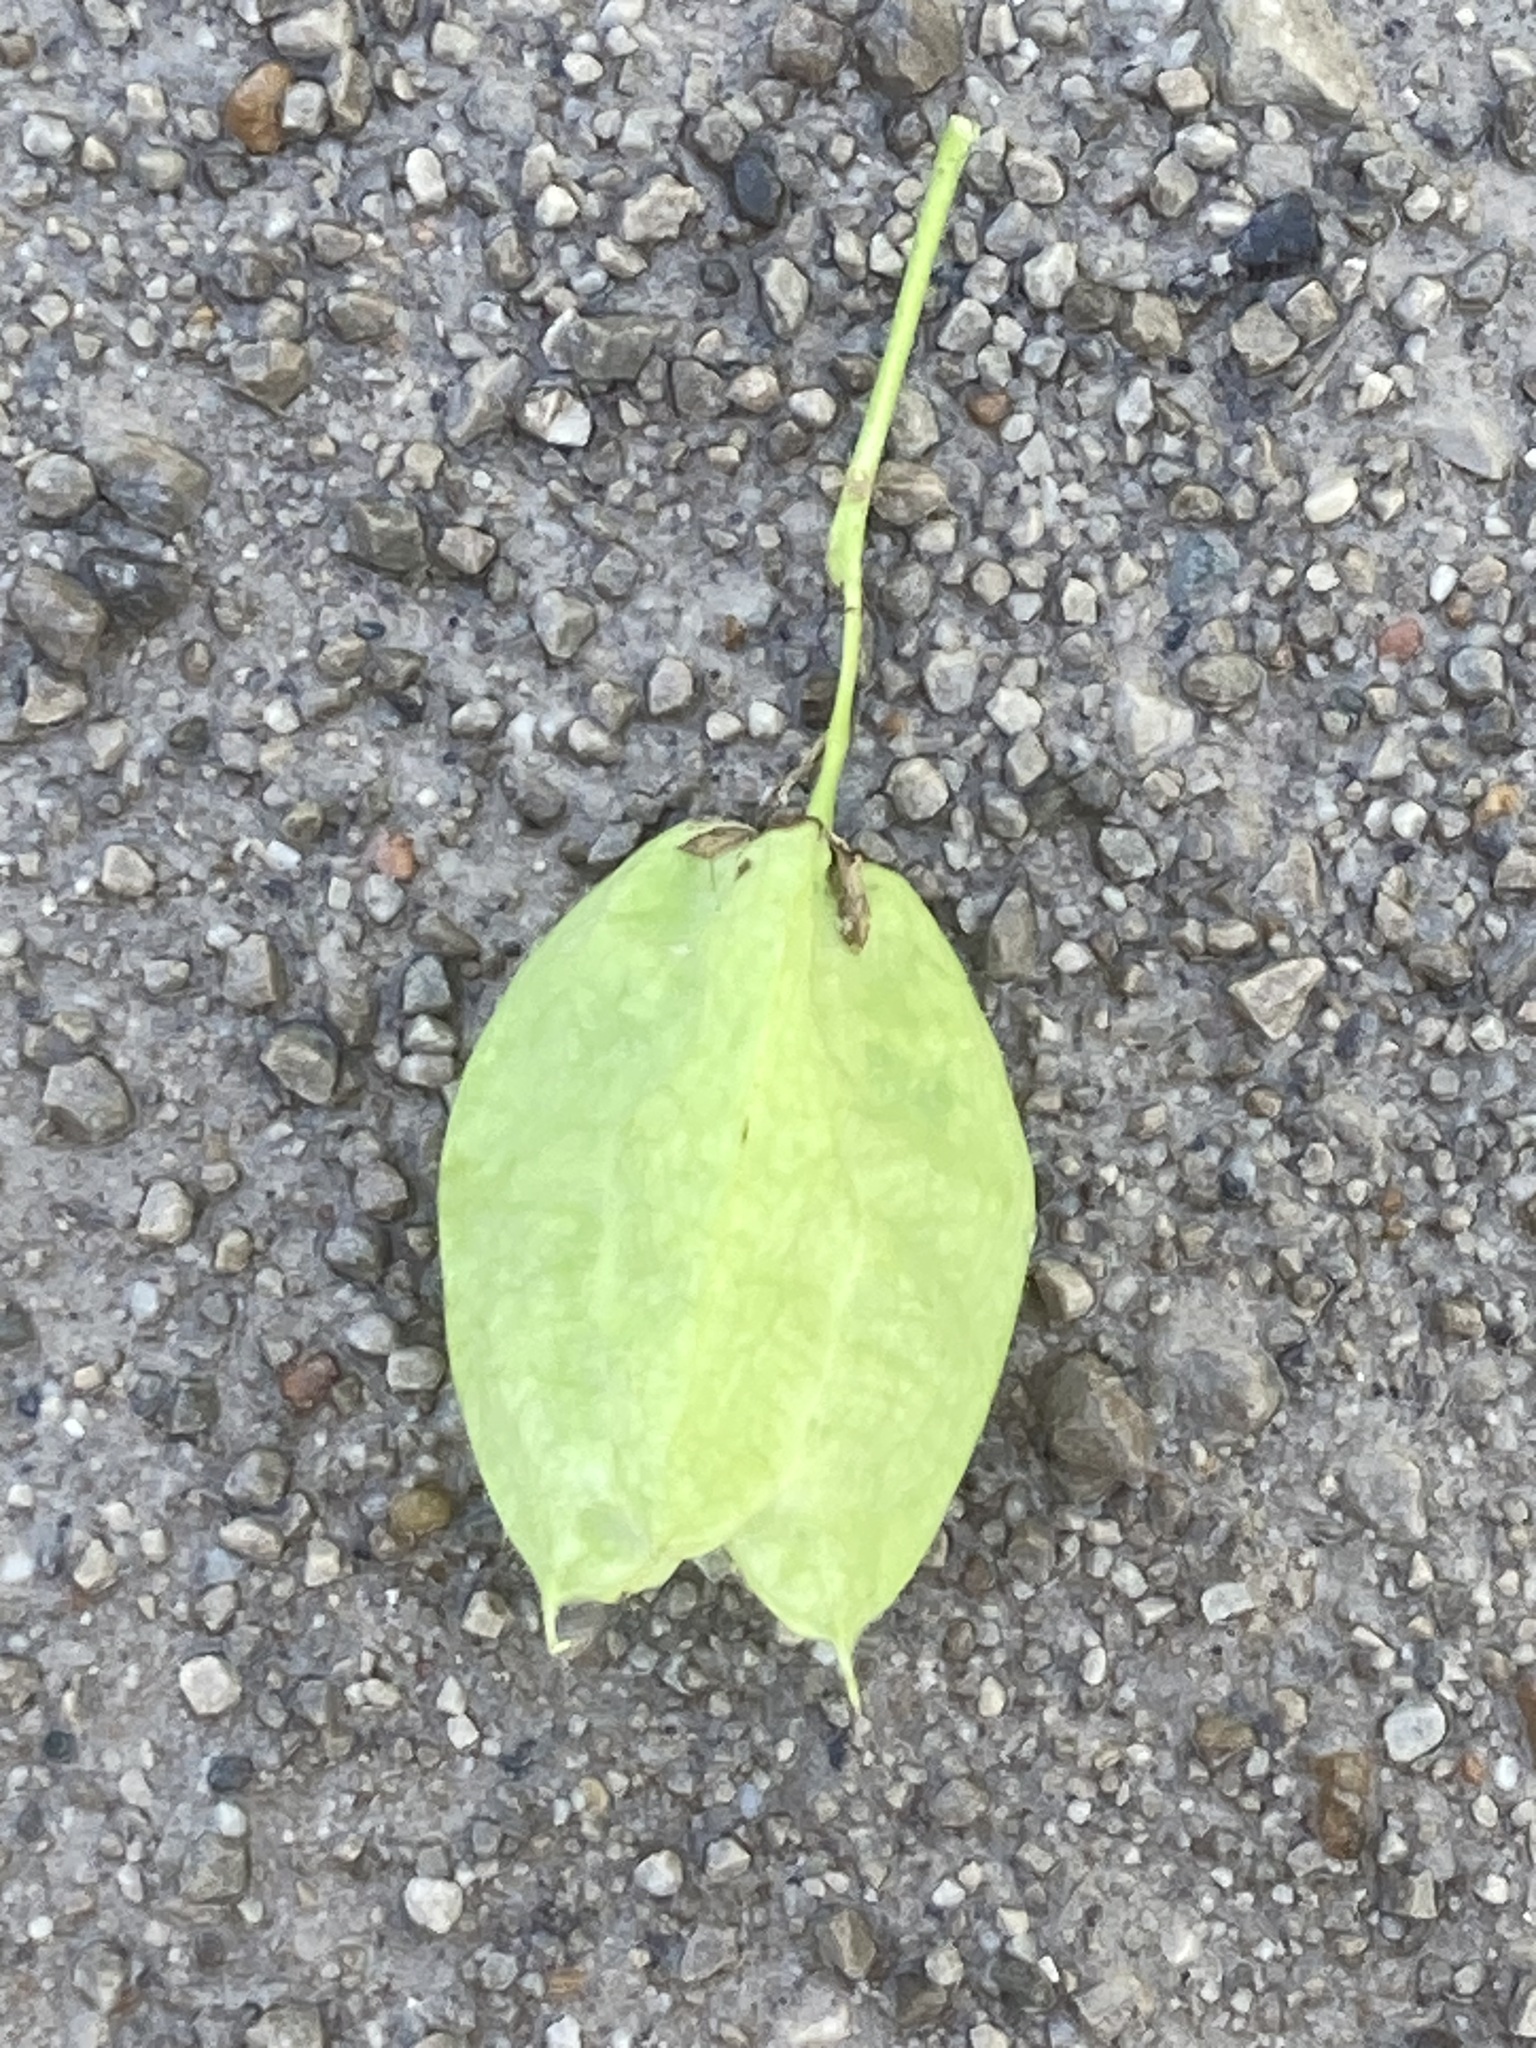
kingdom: Plantae
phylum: Tracheophyta
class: Magnoliopsida
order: Crossosomatales
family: Staphyleaceae
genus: Staphylea
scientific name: Staphylea trifolia
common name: American bladdernut
